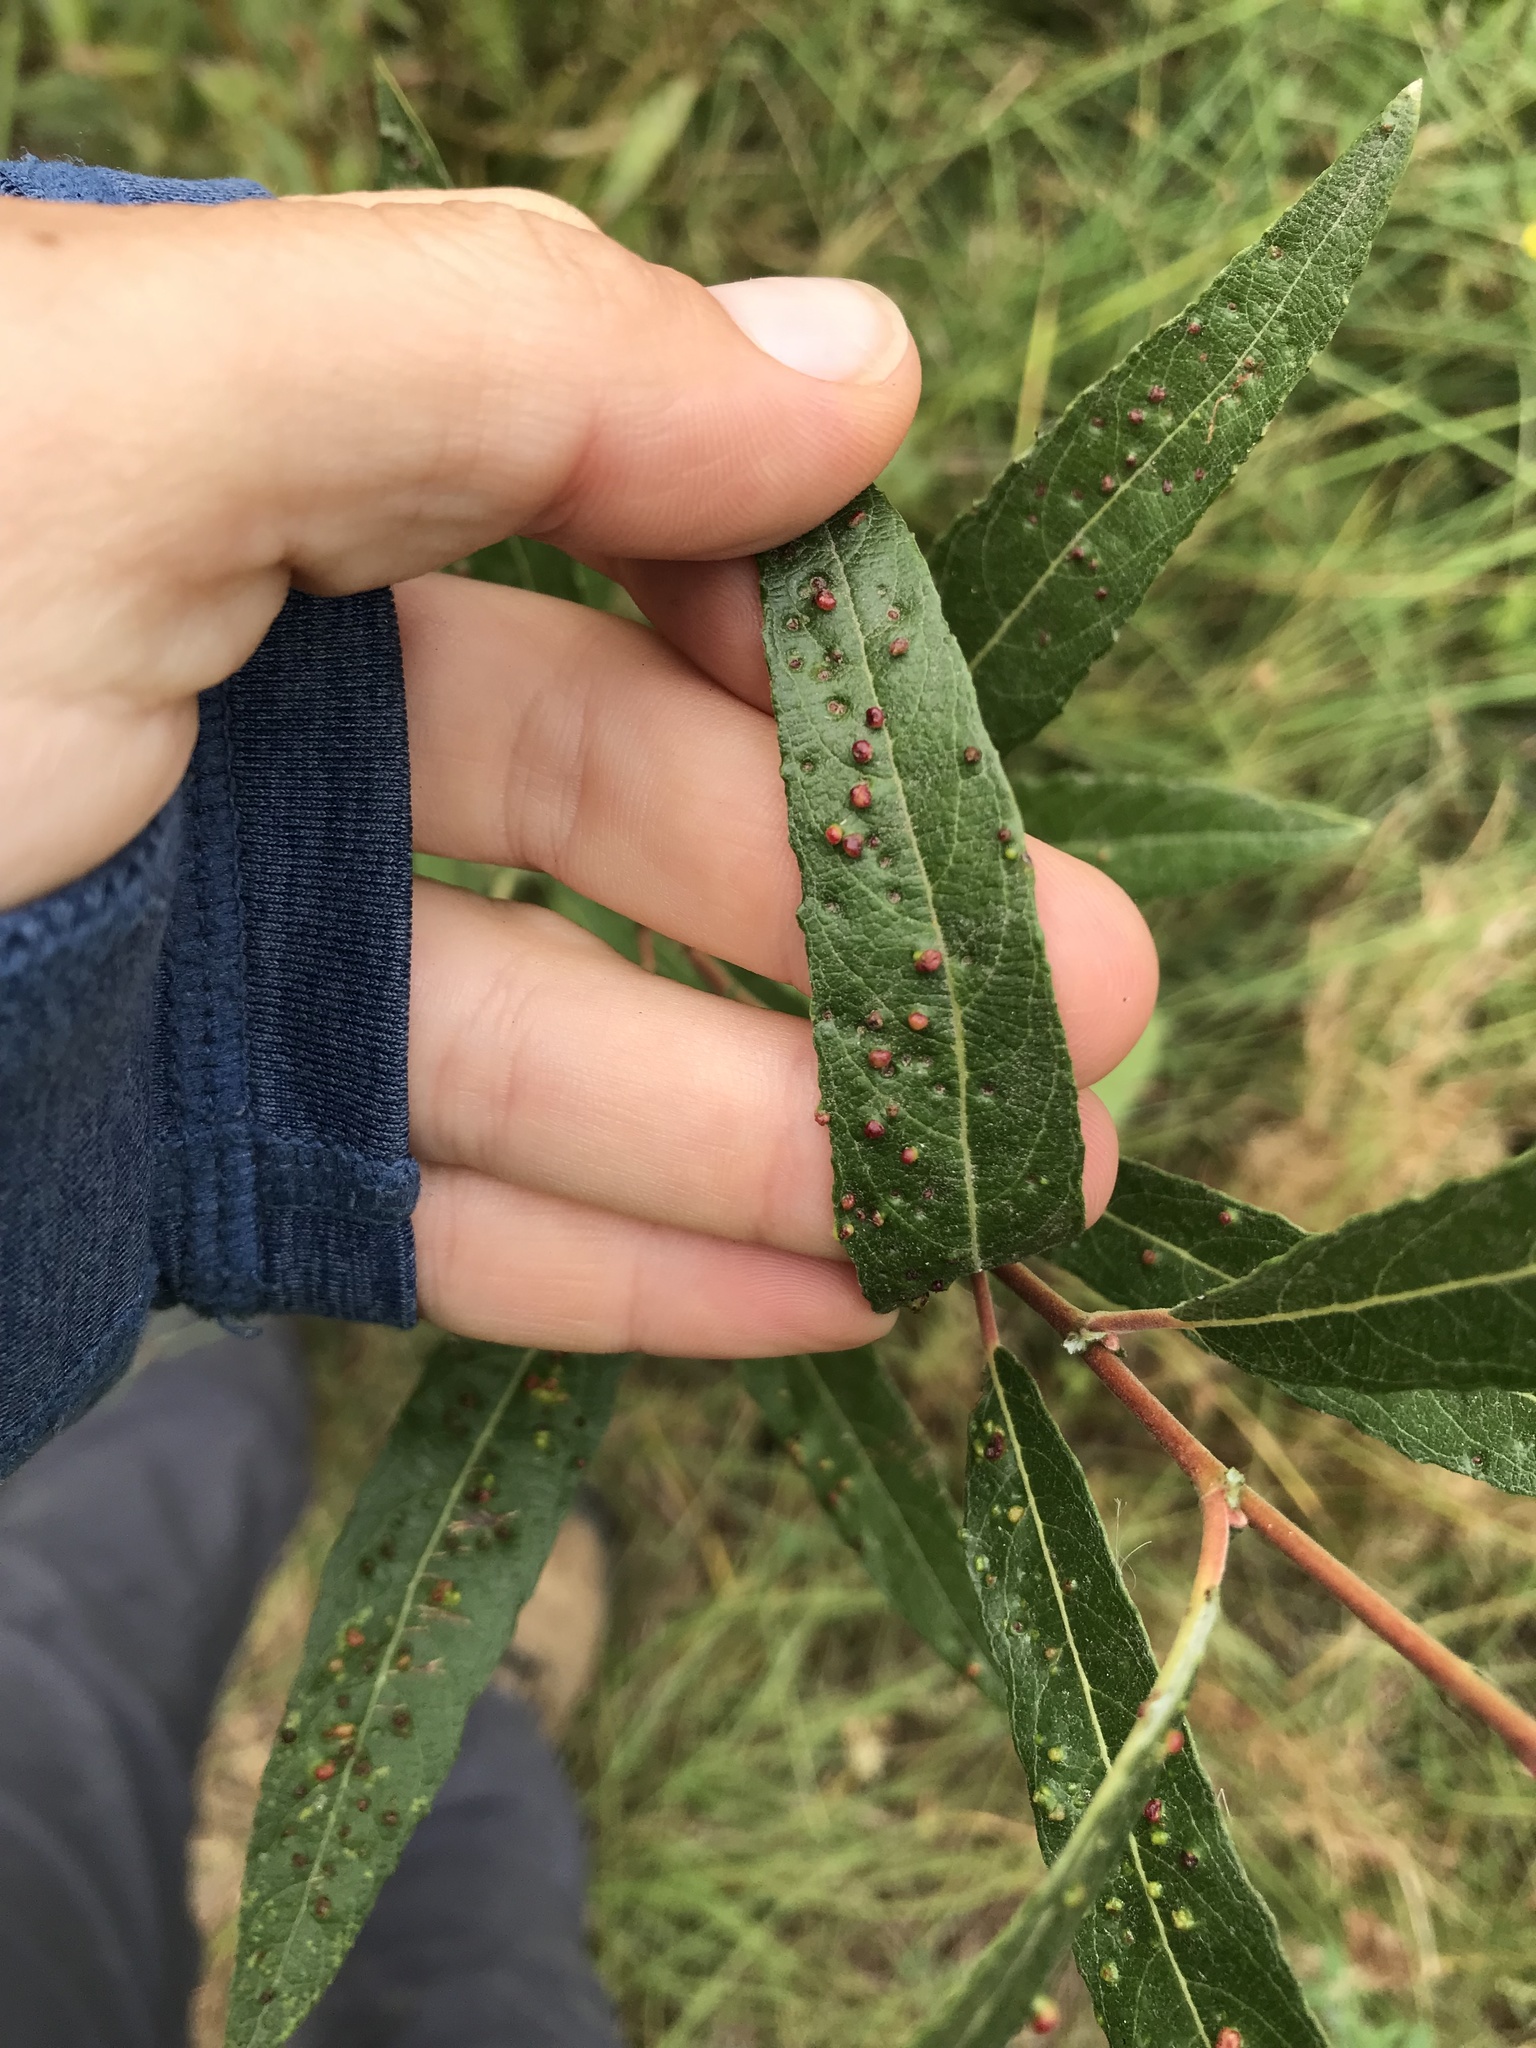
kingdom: Animalia
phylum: Arthropoda
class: Arachnida
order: Trombidiformes
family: Eriophyidae
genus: Aculus
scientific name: Aculus tetanothrix
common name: Willow bead gall mite
